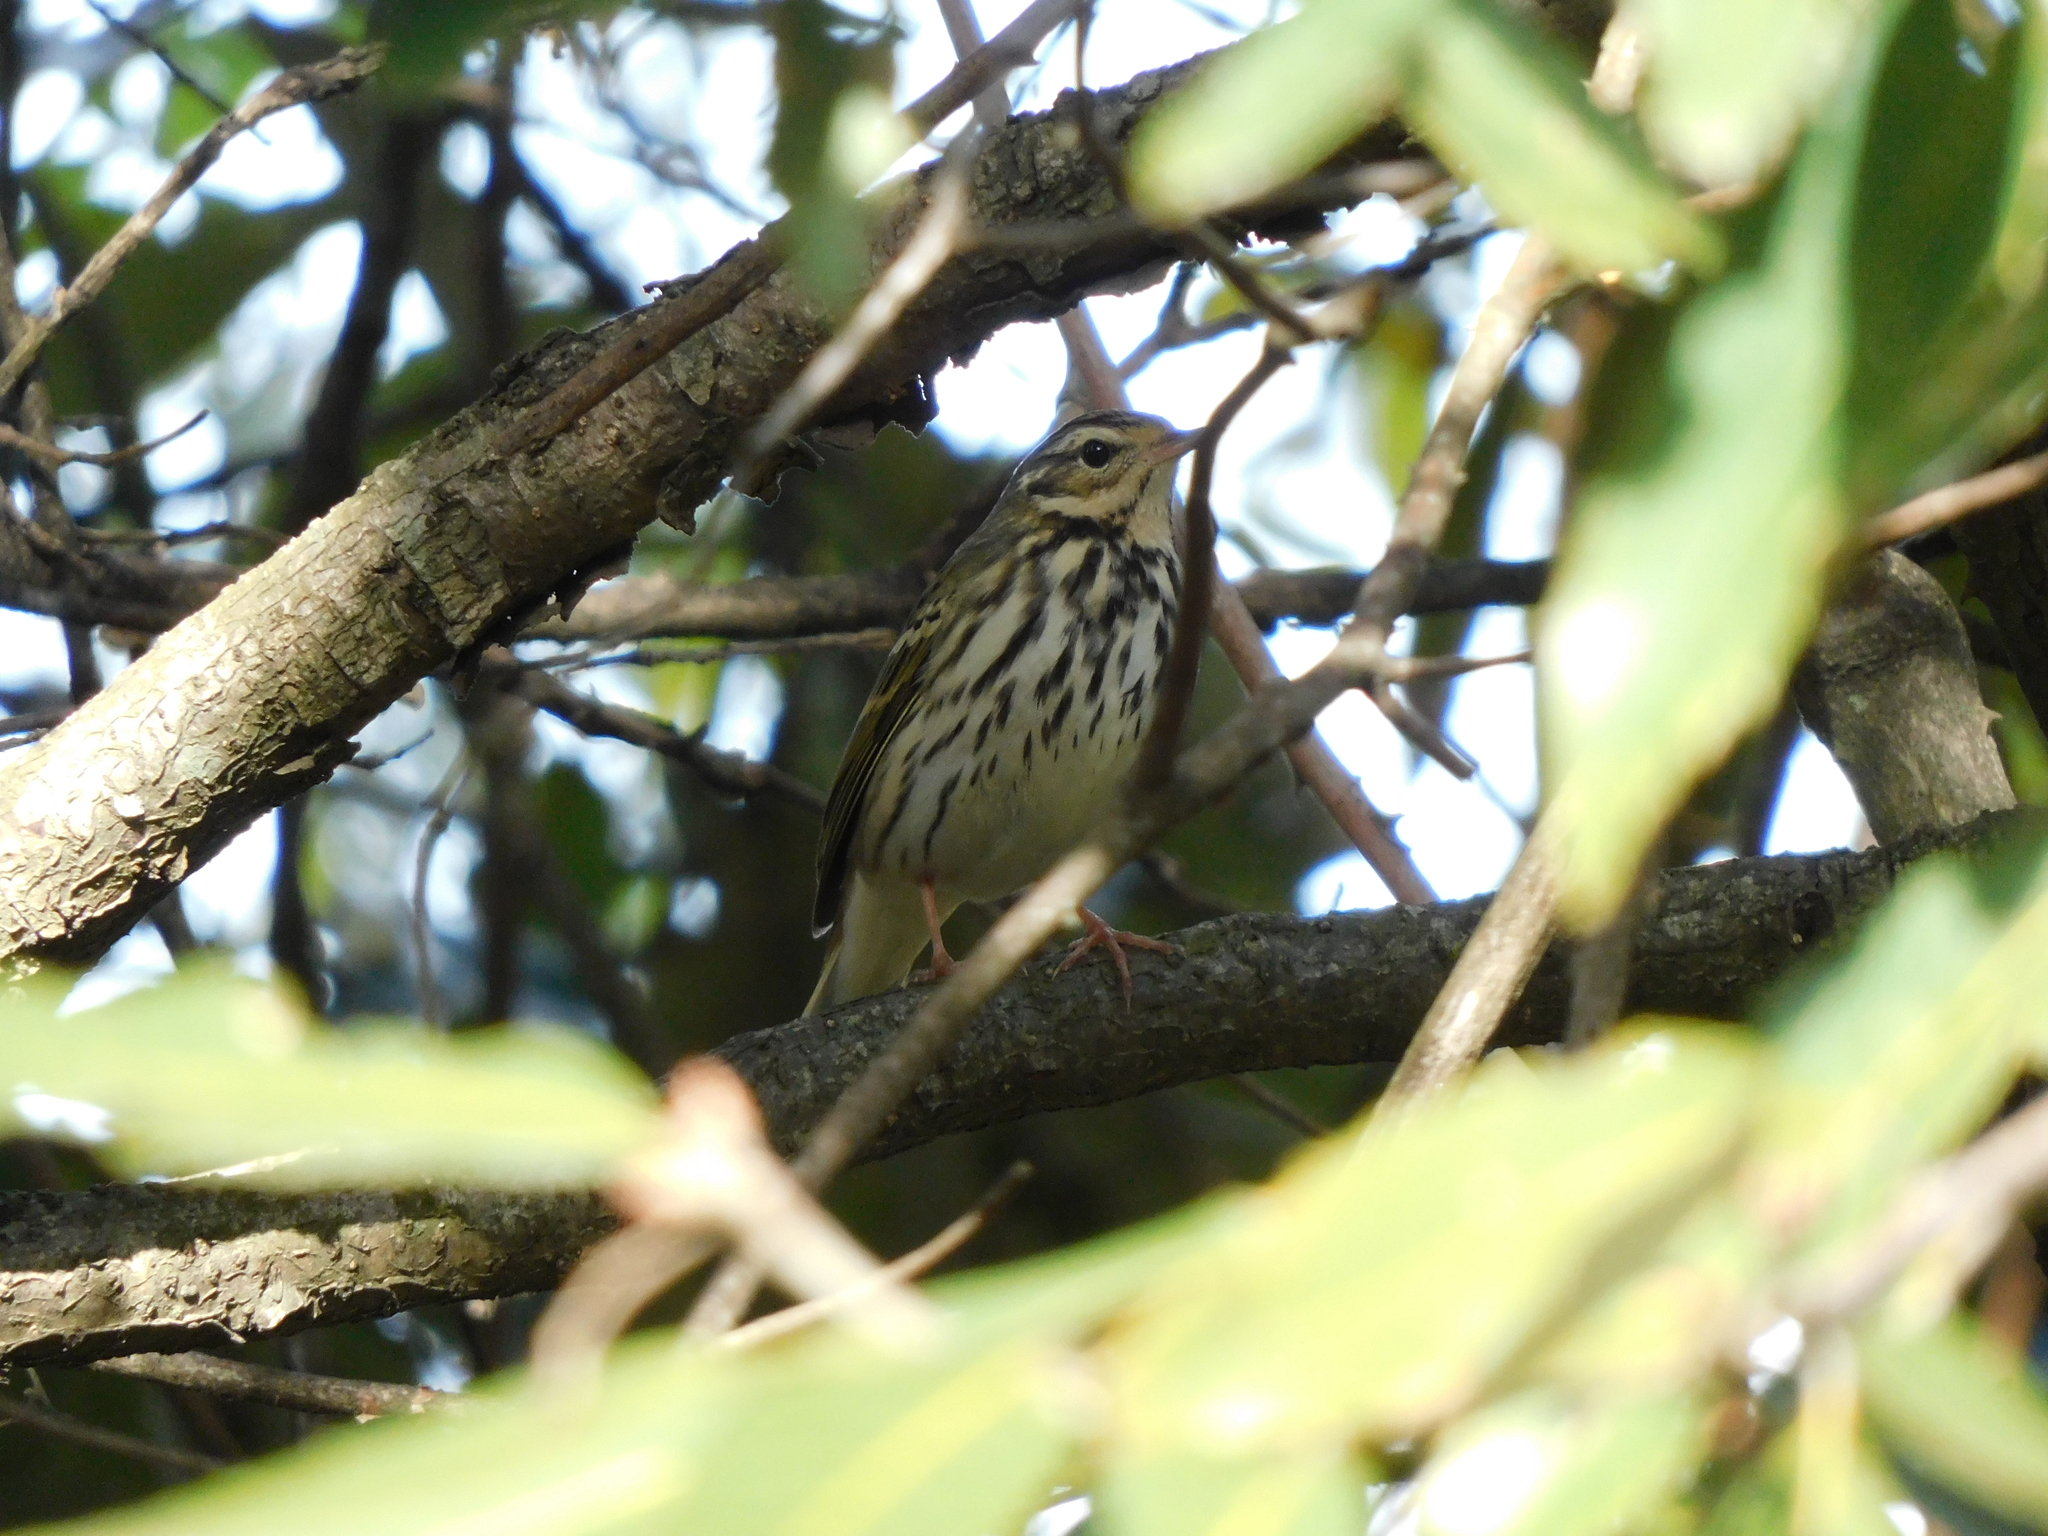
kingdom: Animalia
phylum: Chordata
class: Aves
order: Passeriformes
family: Motacillidae
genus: Anthus
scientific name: Anthus hodgsoni
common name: Olive-backed pipit
